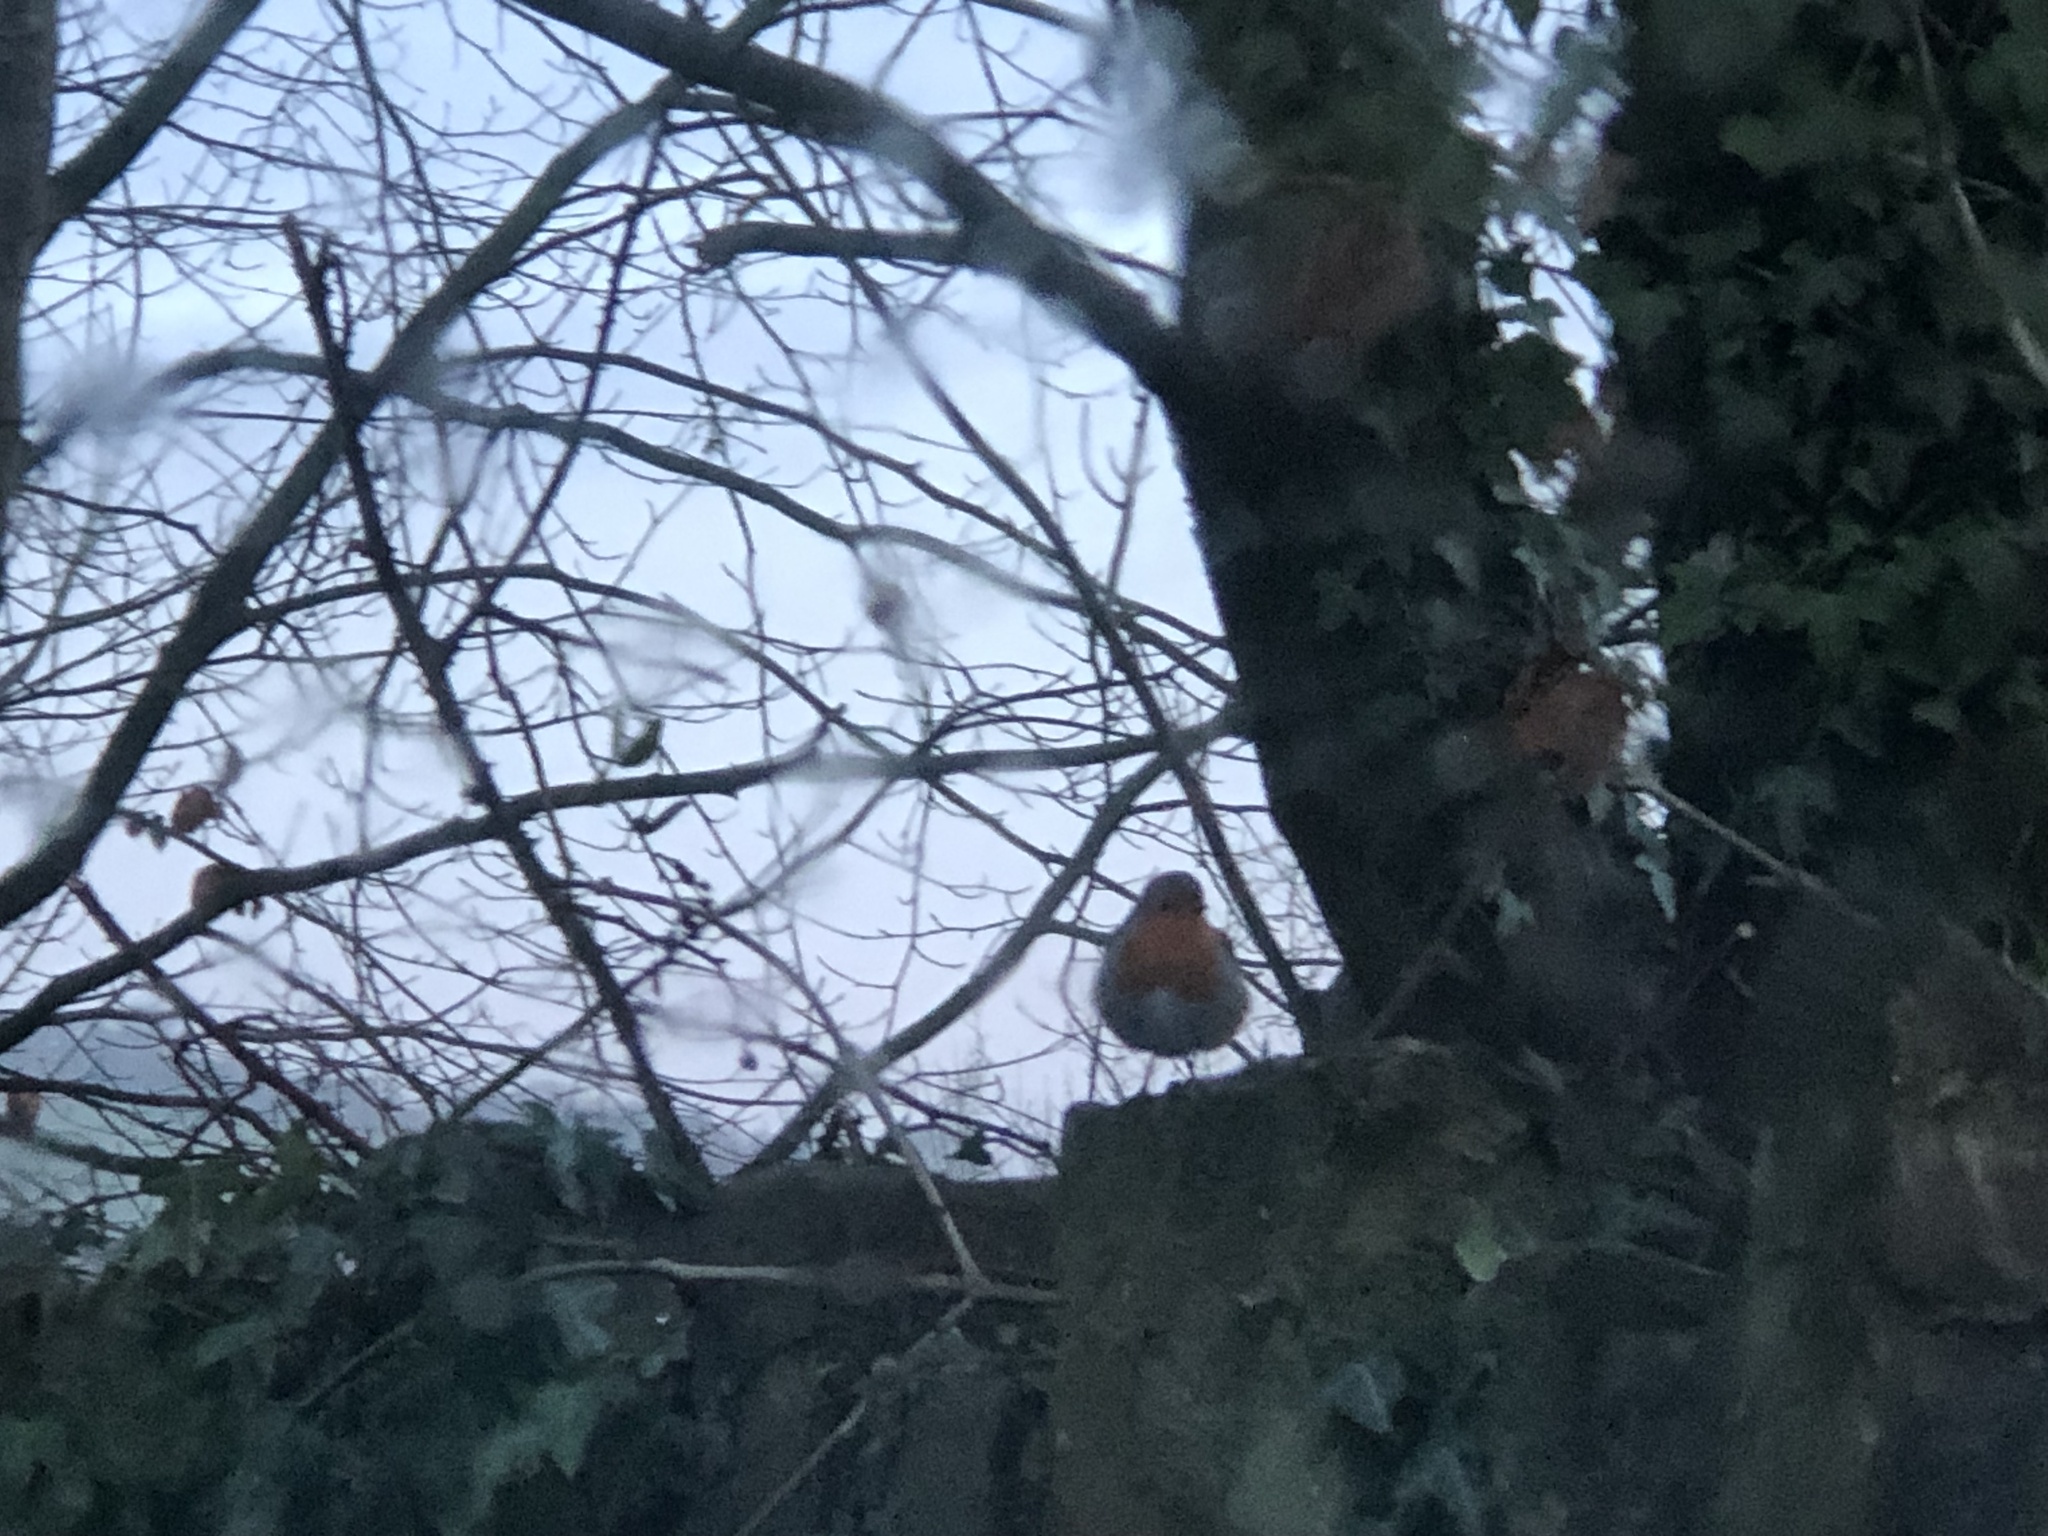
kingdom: Animalia
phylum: Chordata
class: Aves
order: Passeriformes
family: Muscicapidae
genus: Erithacus
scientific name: Erithacus rubecula
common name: European robin
